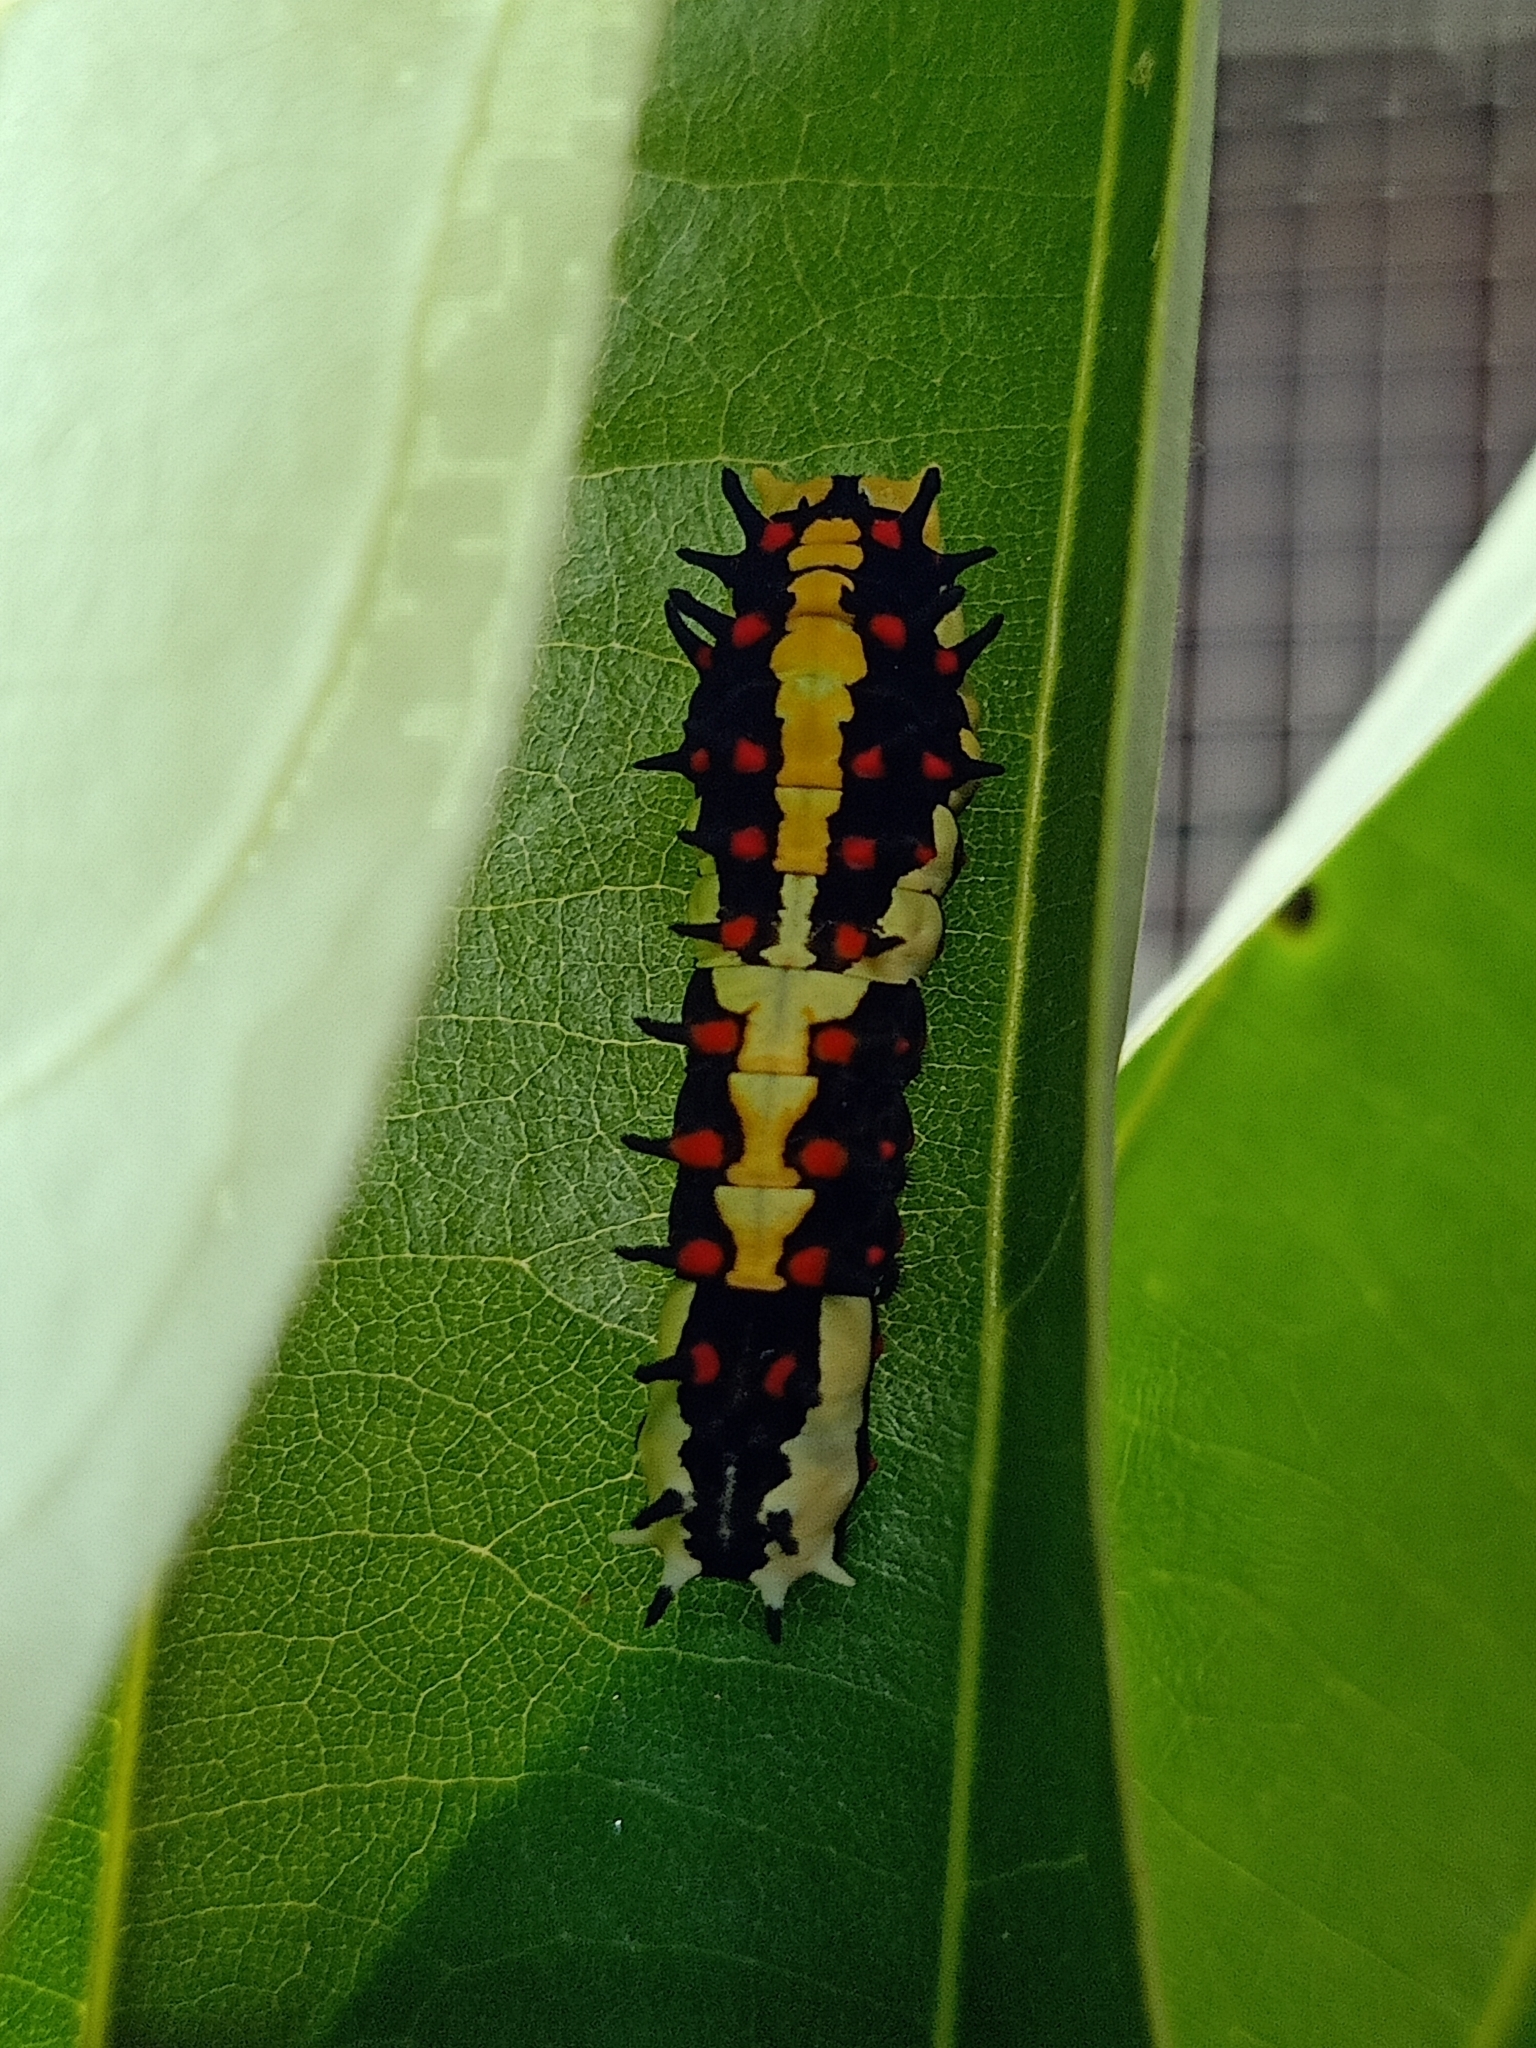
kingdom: Animalia
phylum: Arthropoda
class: Insecta
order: Lepidoptera
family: Papilionidae
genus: Chilasa
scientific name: Chilasa clytia
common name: Common mime
